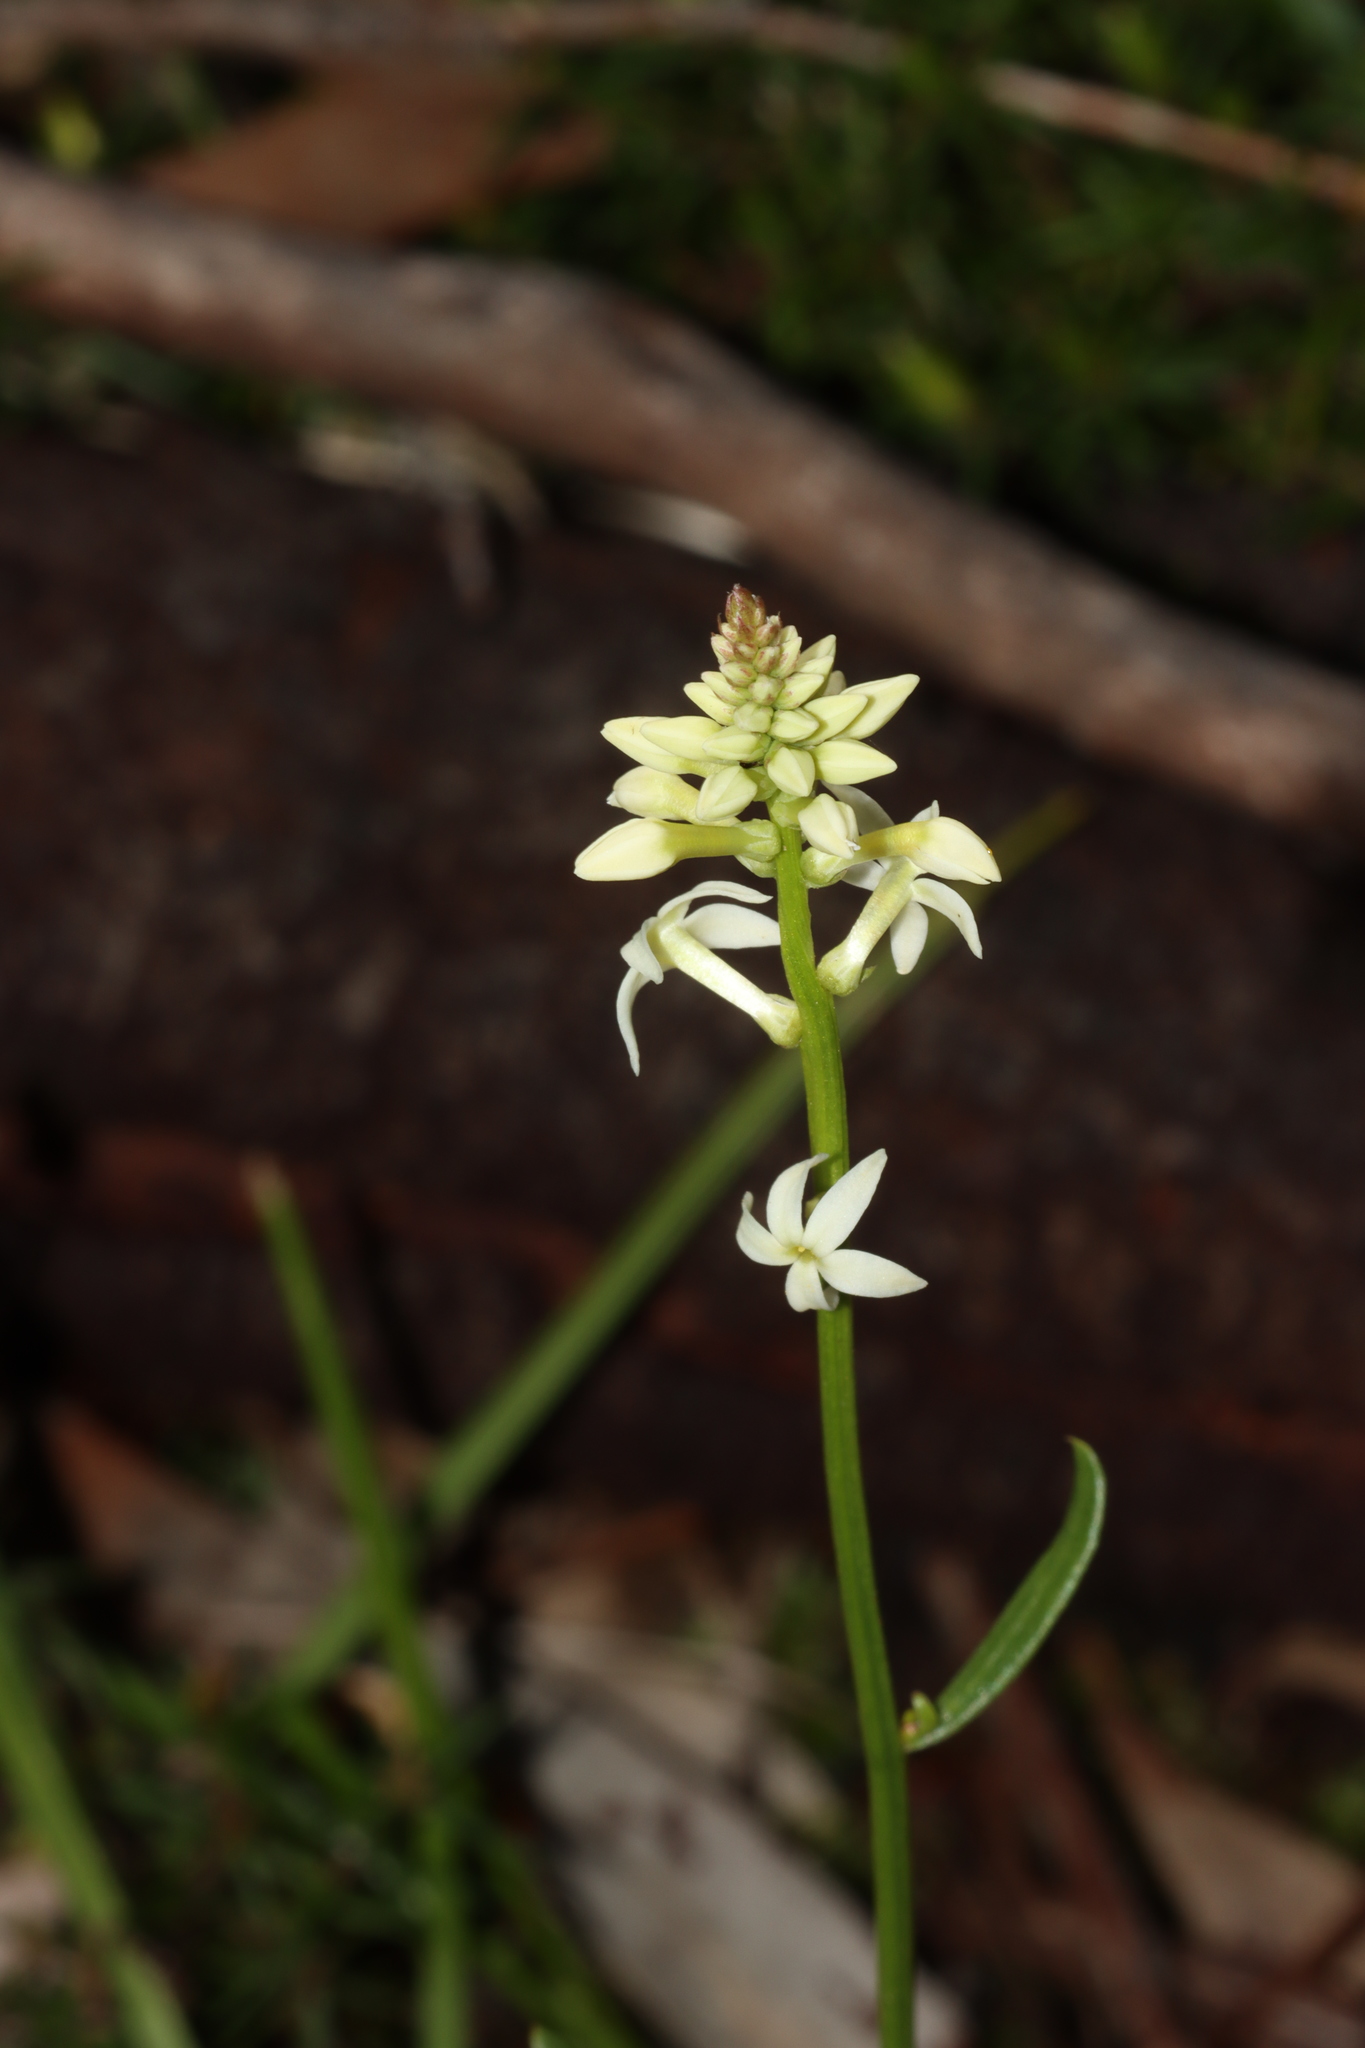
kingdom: Plantae
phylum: Tracheophyta
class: Magnoliopsida
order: Celastrales
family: Celastraceae
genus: Stackhousia
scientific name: Stackhousia monogyna
